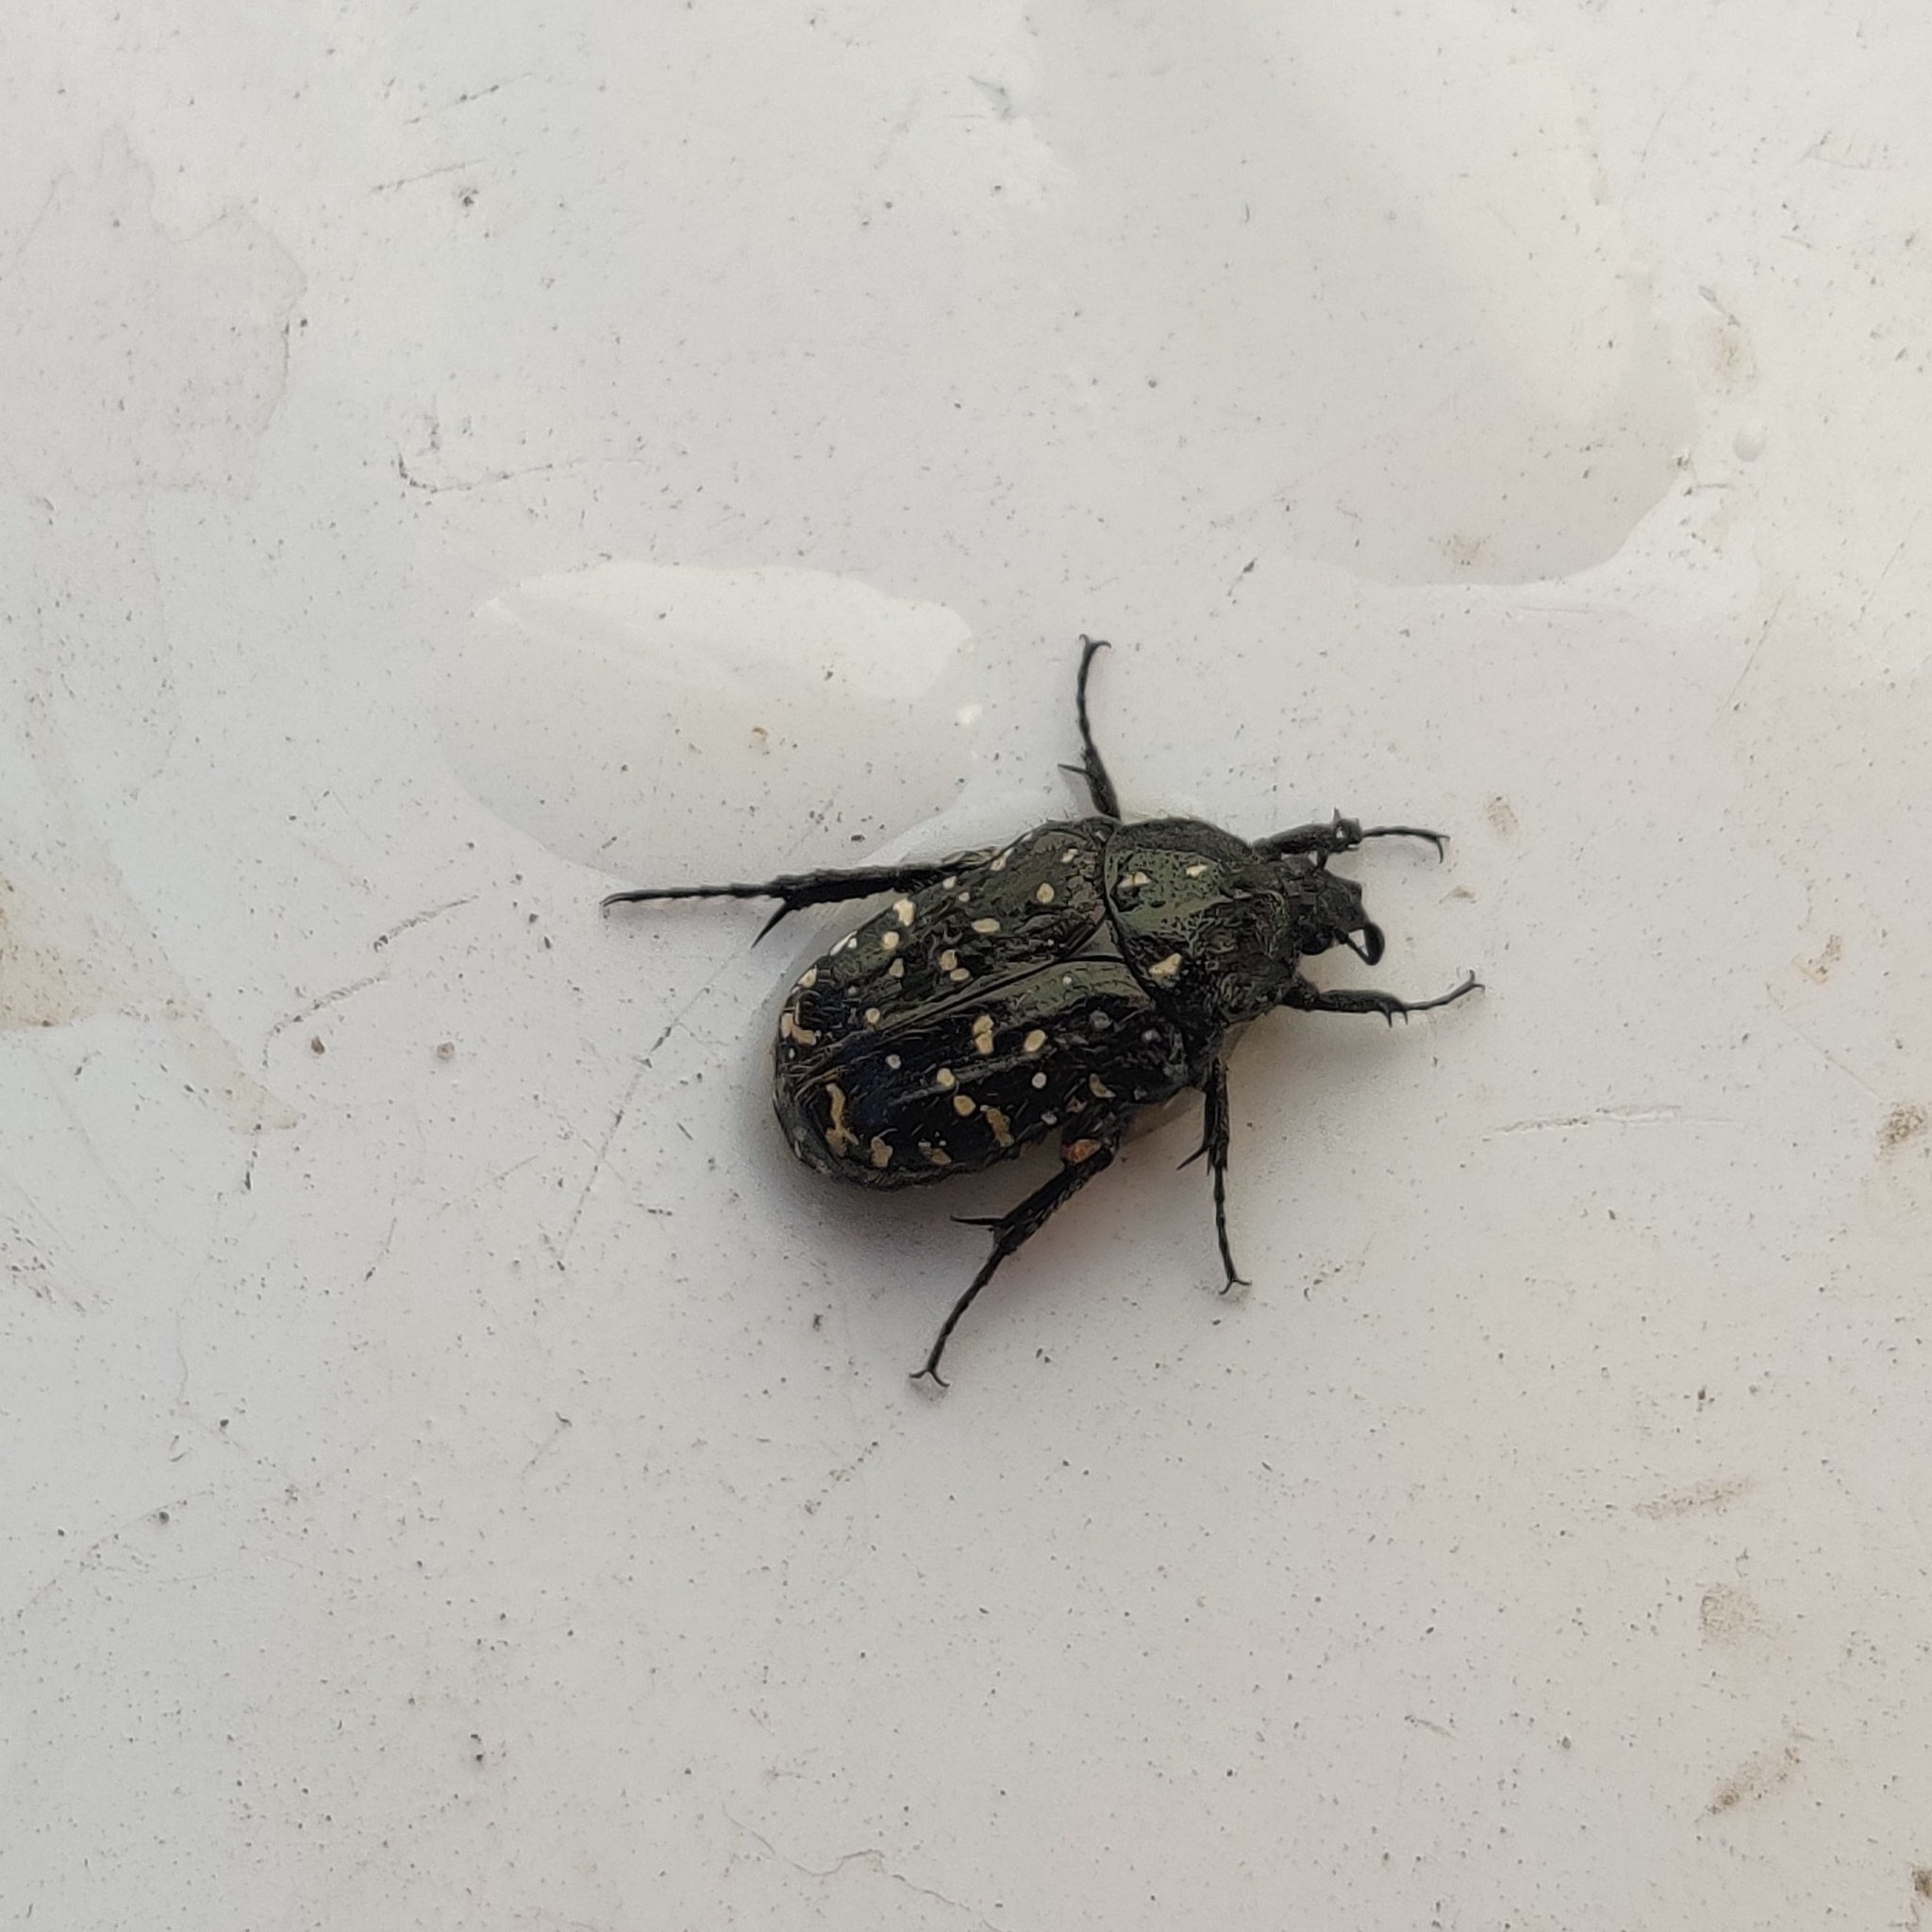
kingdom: Animalia
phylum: Arthropoda
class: Insecta
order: Coleoptera
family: Scarabaeidae
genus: Oxythyrea
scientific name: Oxythyrea funesta
